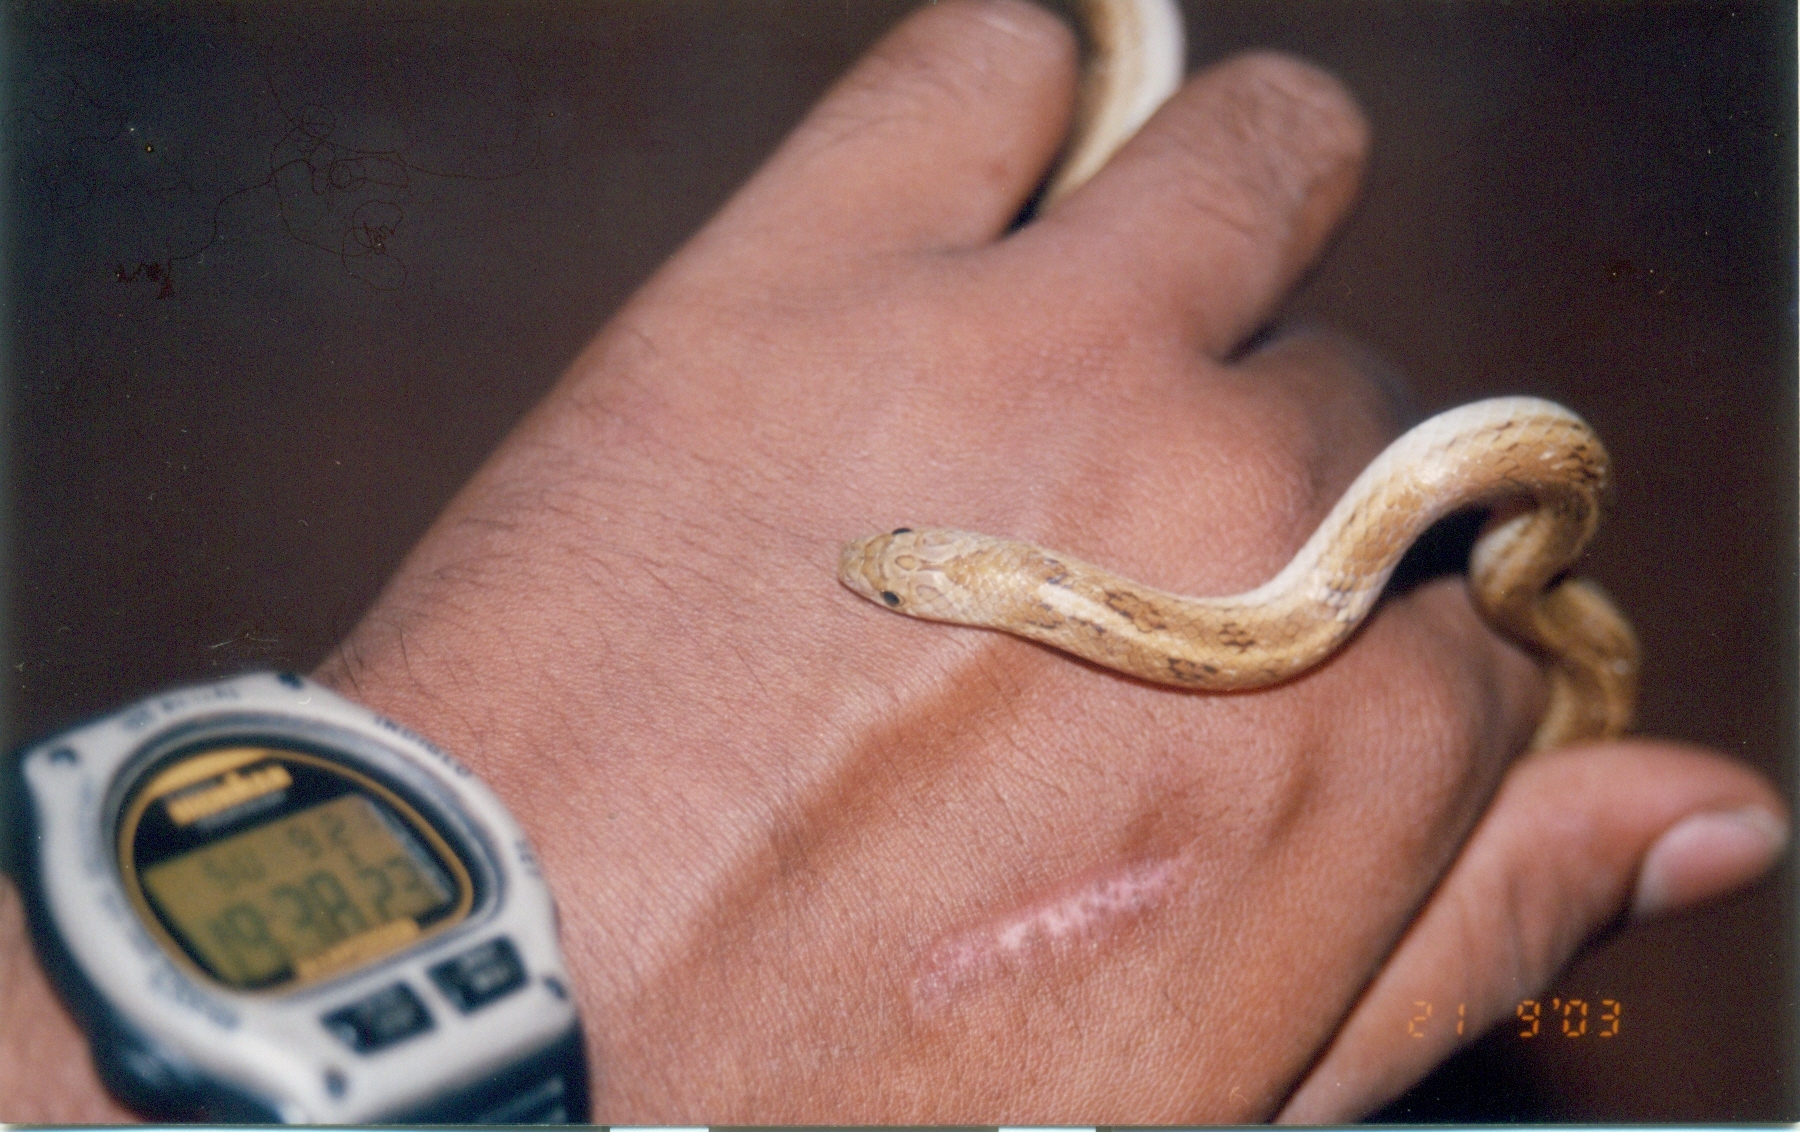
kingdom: Animalia
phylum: Chordata
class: Squamata
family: Colubridae
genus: Oligodon
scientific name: Oligodon taeniolatus
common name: Loos snake
